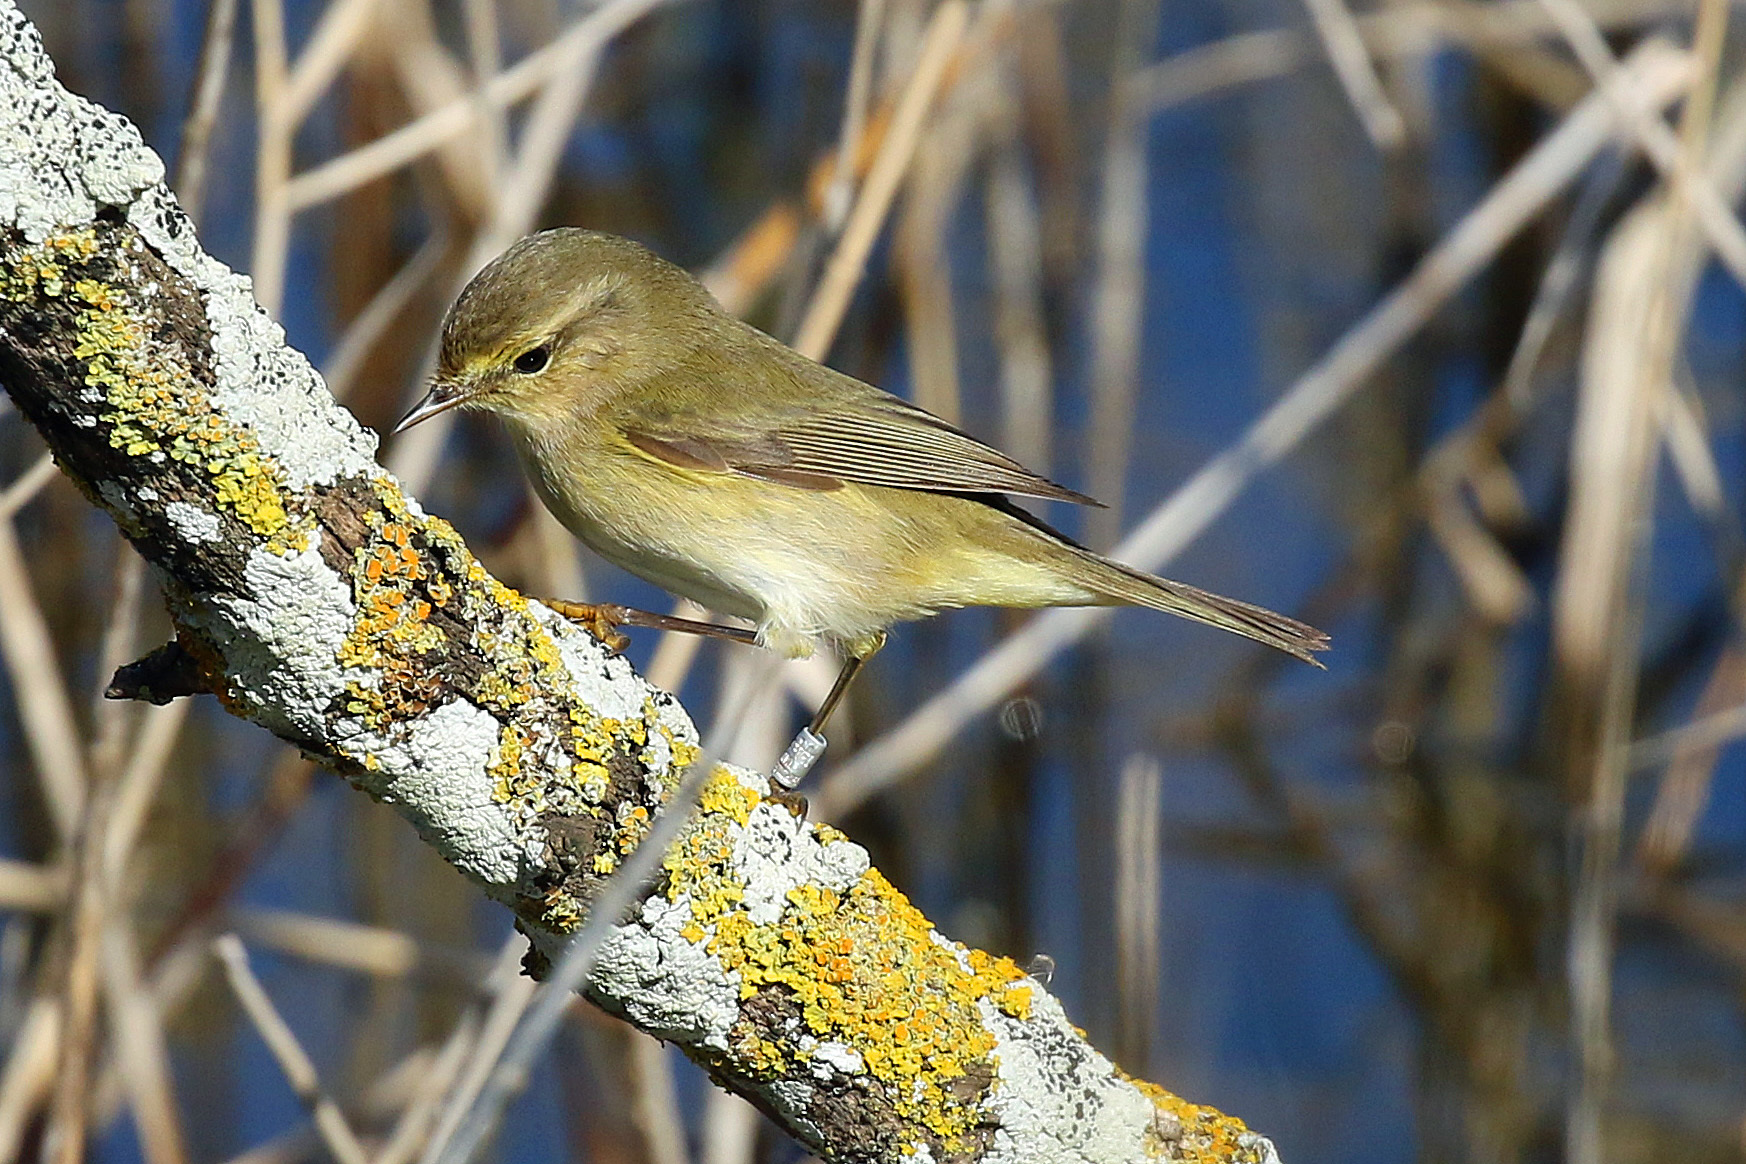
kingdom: Animalia
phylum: Chordata
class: Aves
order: Passeriformes
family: Phylloscopidae
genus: Phylloscopus
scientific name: Phylloscopus collybita
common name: Common chiffchaff
